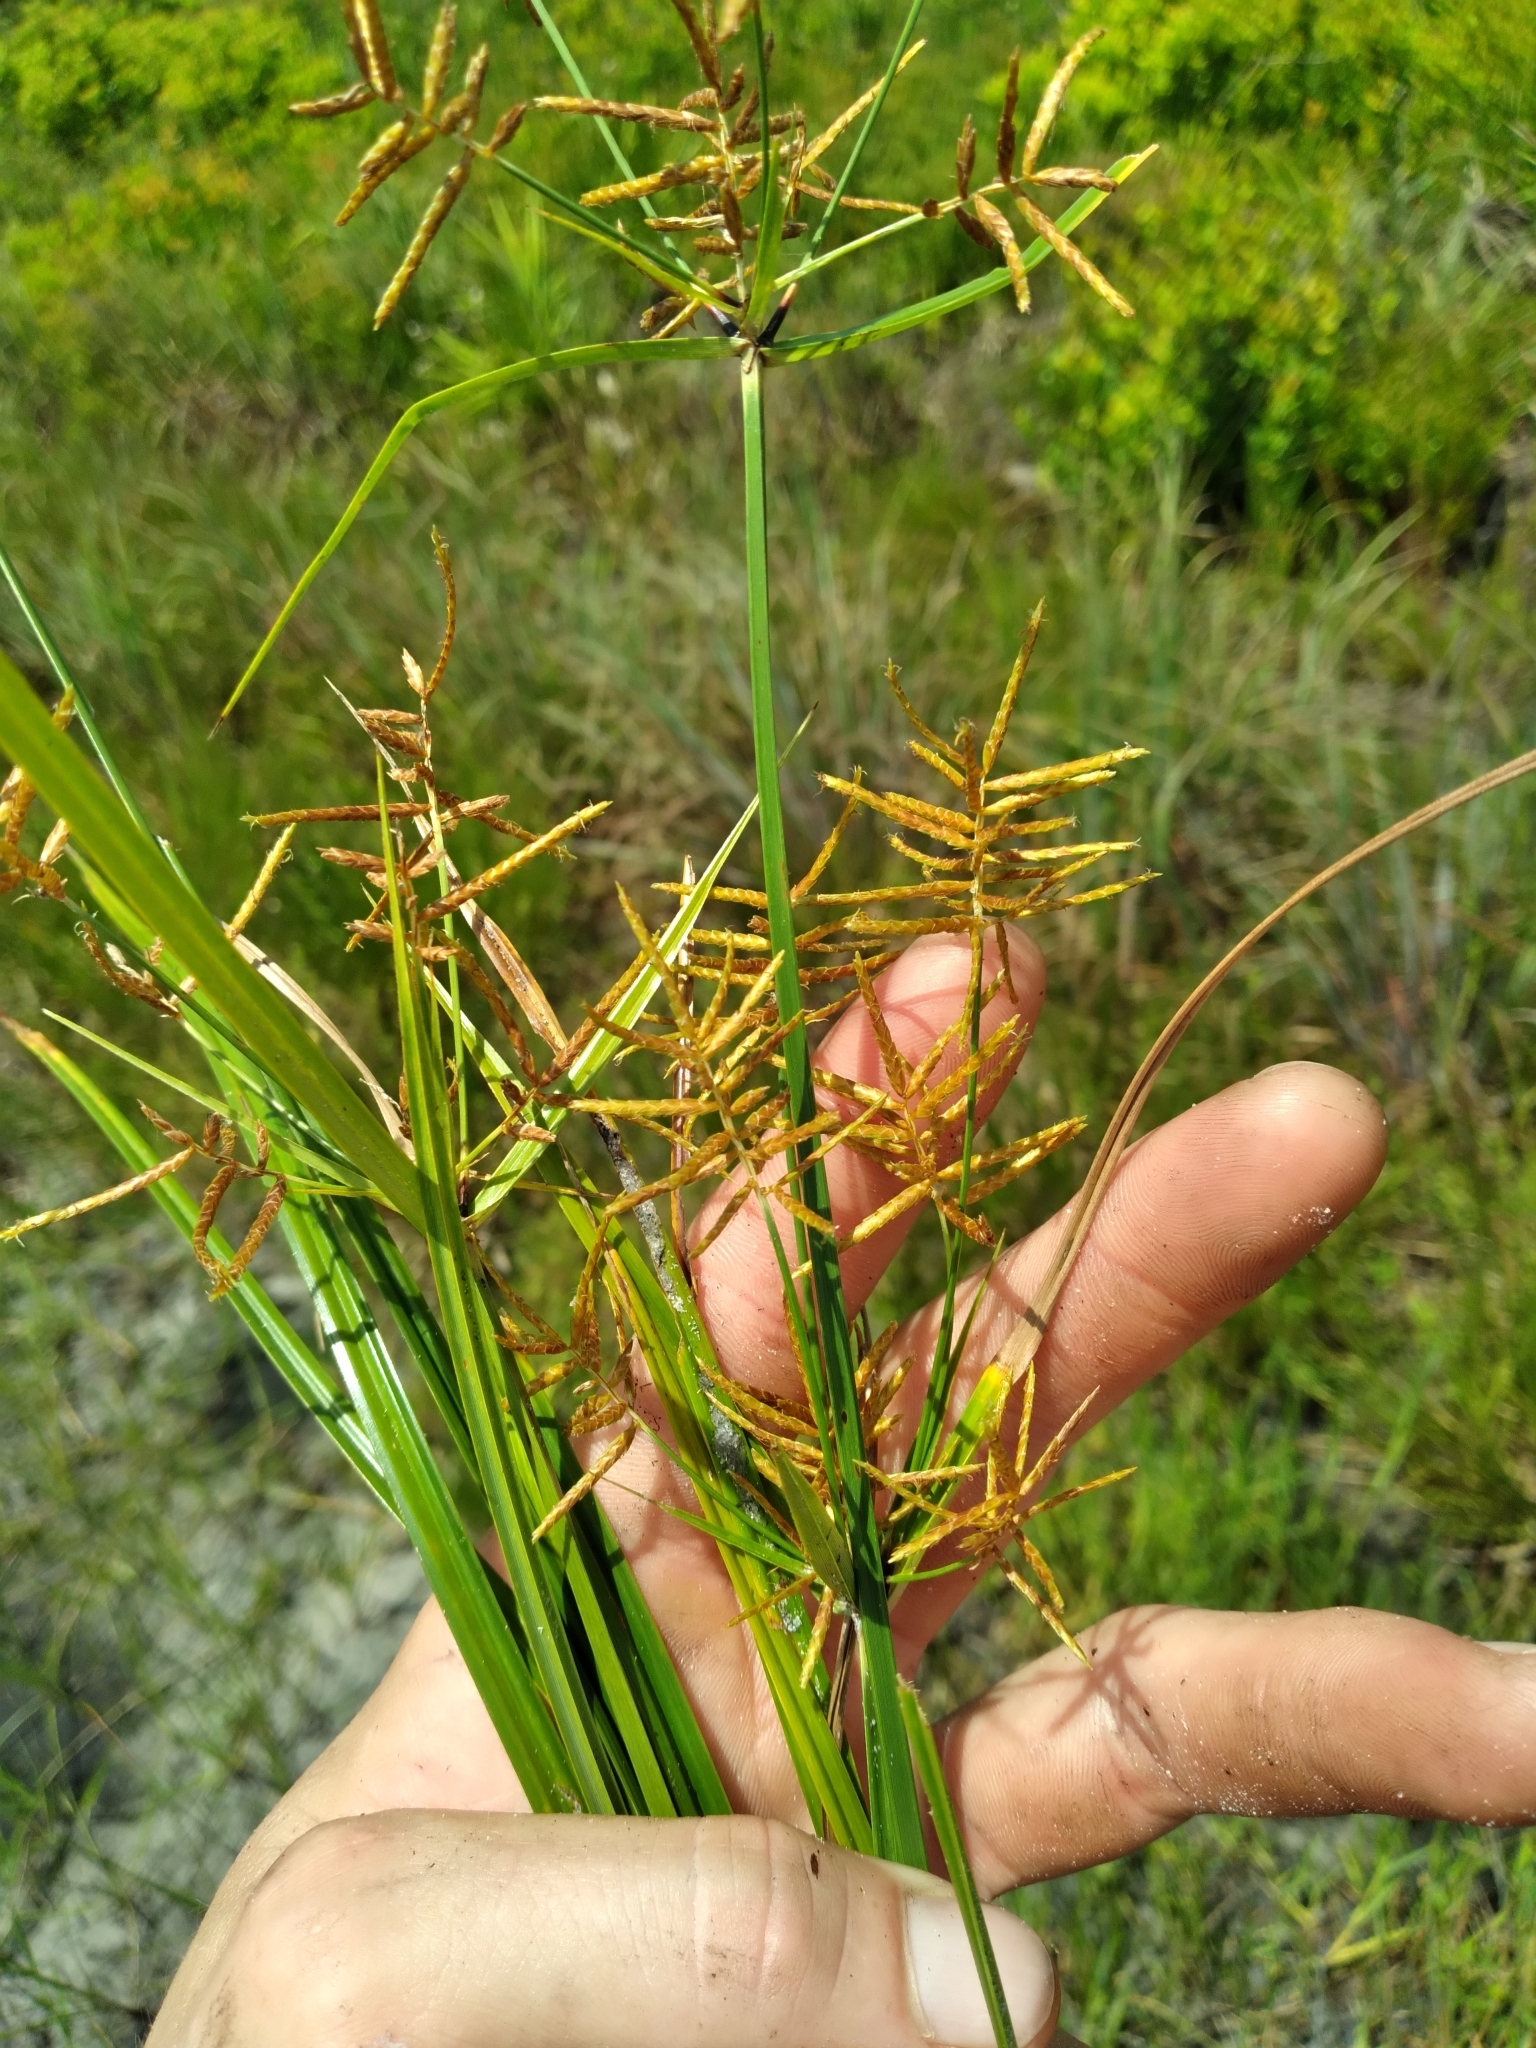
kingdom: Plantae
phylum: Tracheophyta
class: Liliopsida
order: Poales
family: Cyperaceae
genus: Cyperus
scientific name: Cyperus esculentus
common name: Yellow nutsedge
